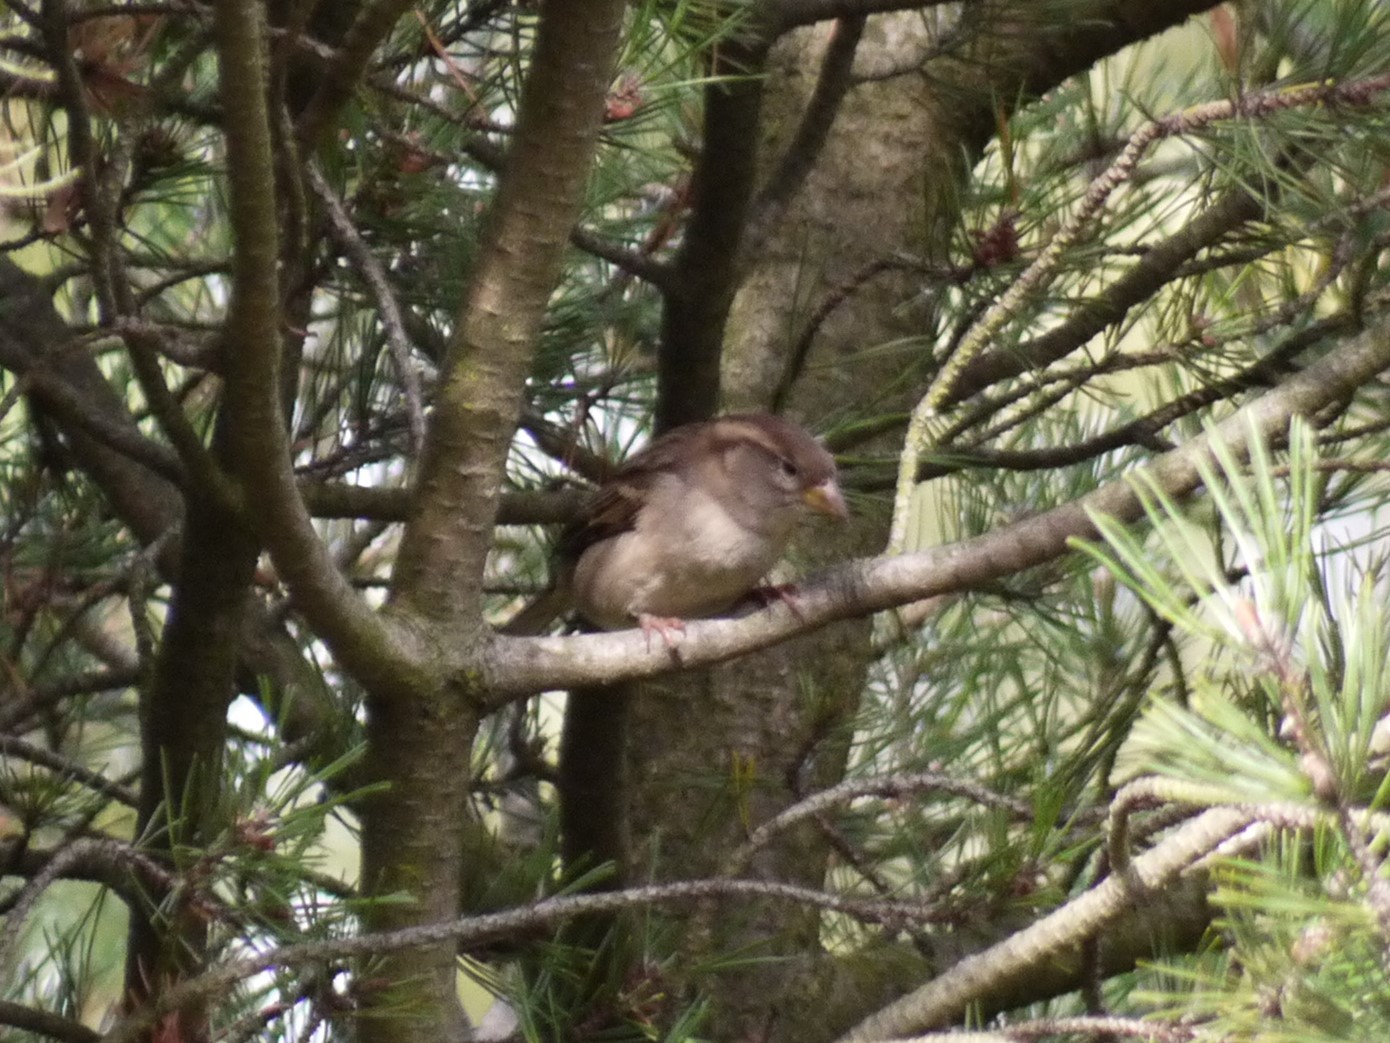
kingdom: Animalia
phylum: Chordata
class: Aves
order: Passeriformes
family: Passeridae
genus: Passer
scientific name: Passer domesticus
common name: House sparrow
